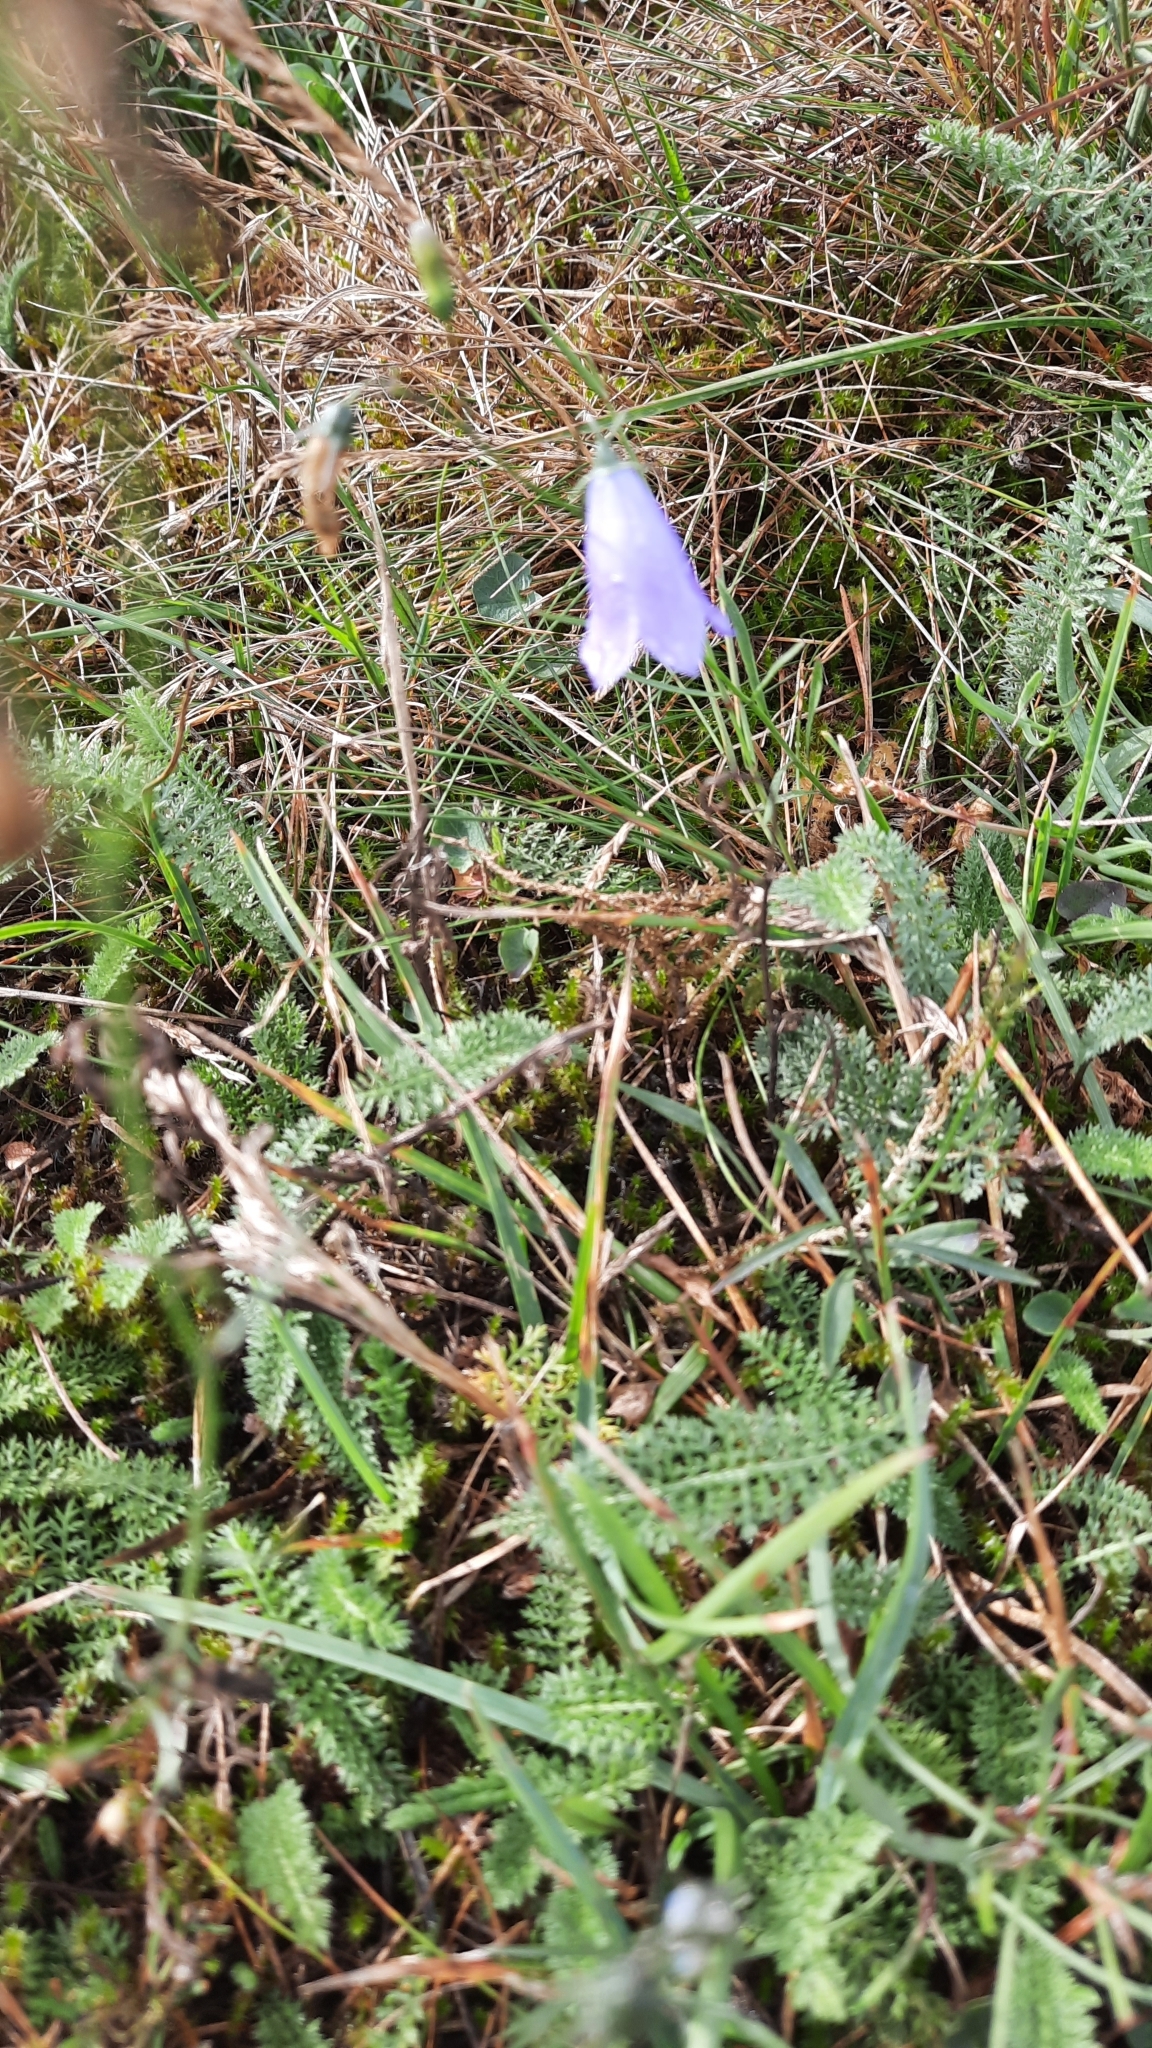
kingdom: Plantae
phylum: Tracheophyta
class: Magnoliopsida
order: Asterales
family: Campanulaceae
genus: Campanula
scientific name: Campanula rotundifolia
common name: Harebell
